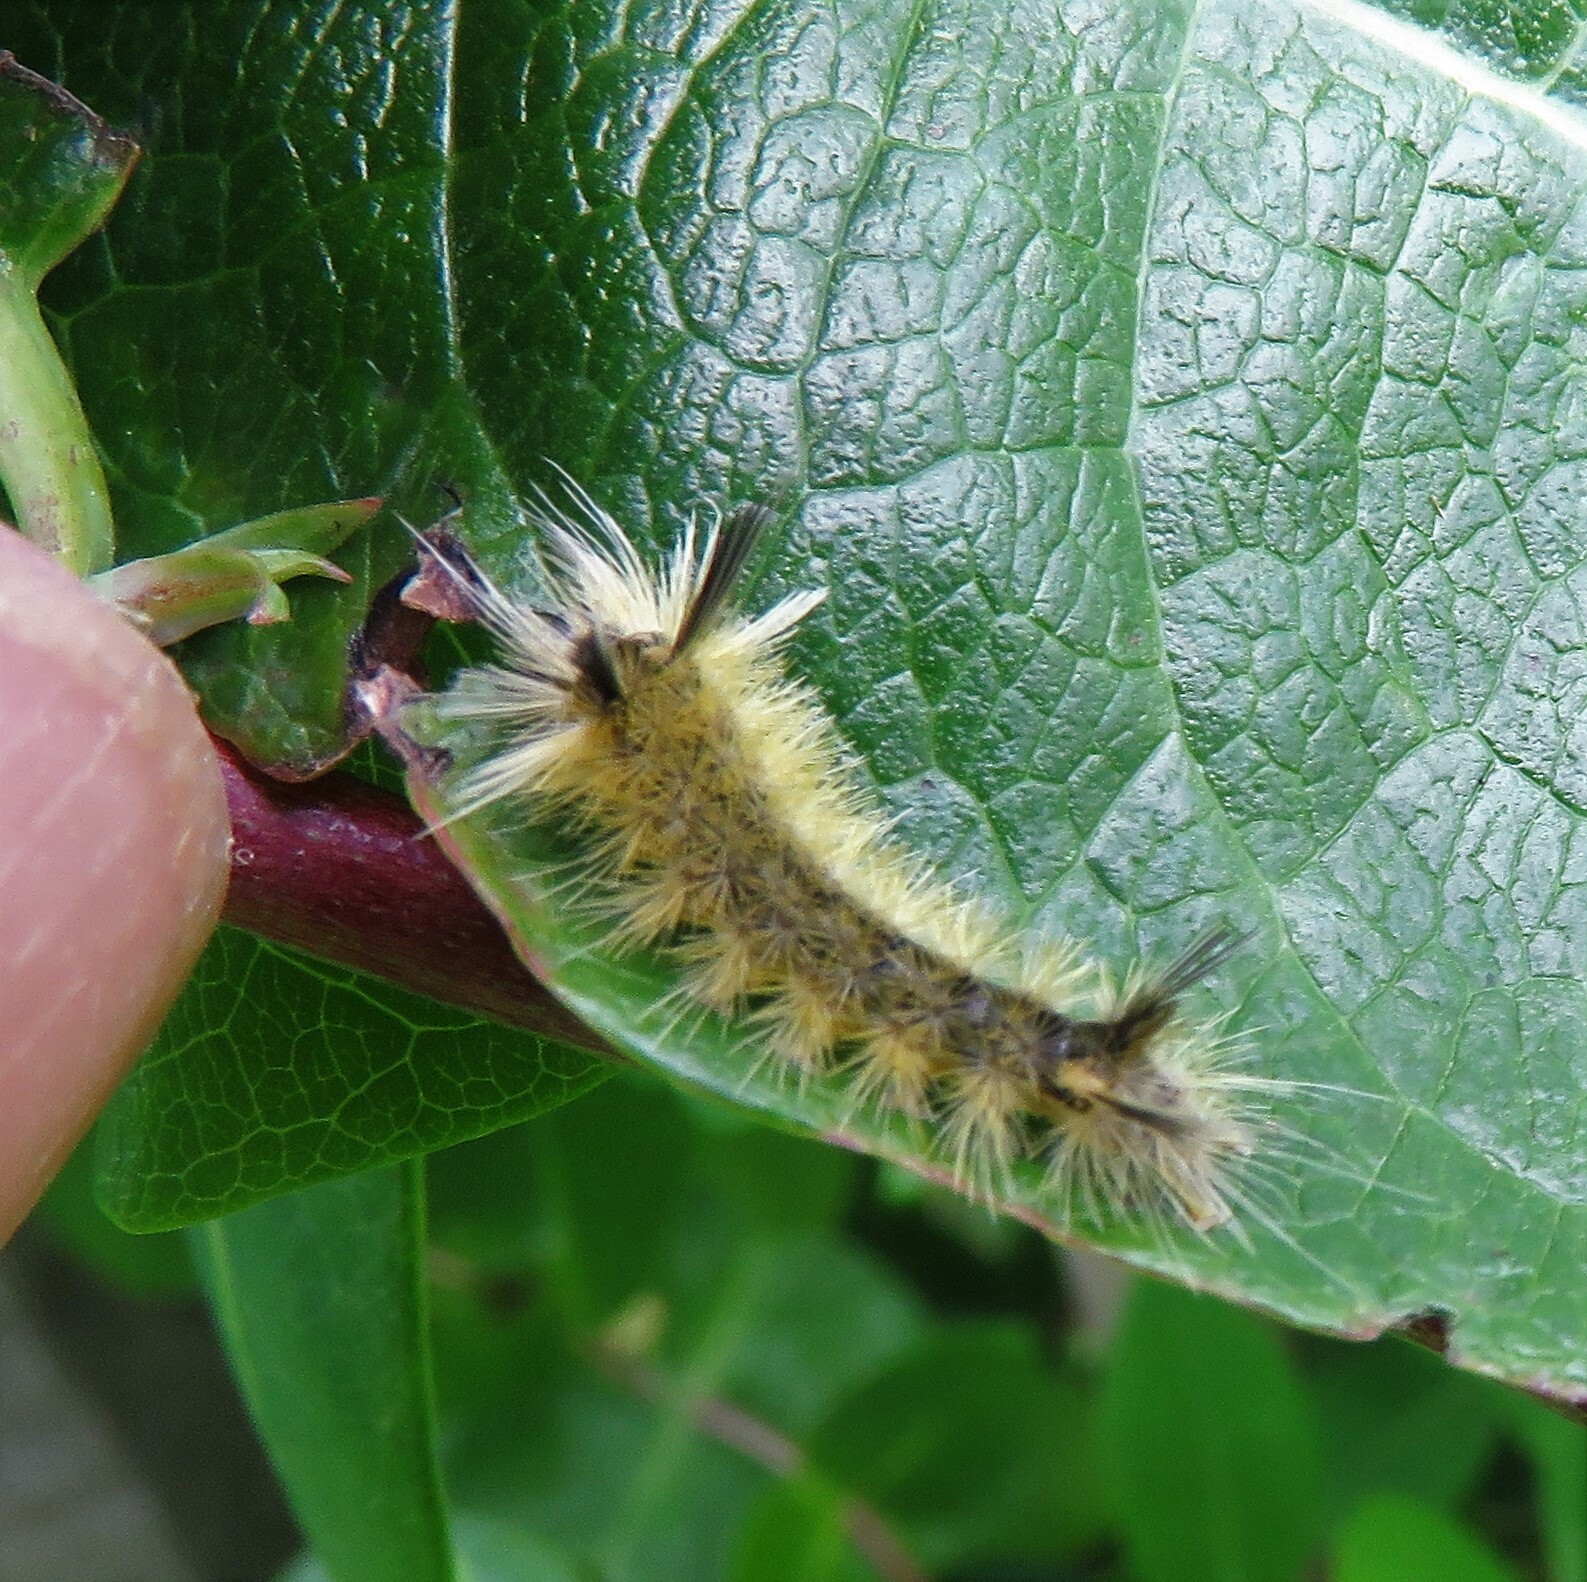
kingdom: Animalia
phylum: Arthropoda
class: Insecta
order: Lepidoptera
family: Erebidae
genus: Halysidota
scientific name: Halysidota tessellaris
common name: Banded tussock moth
